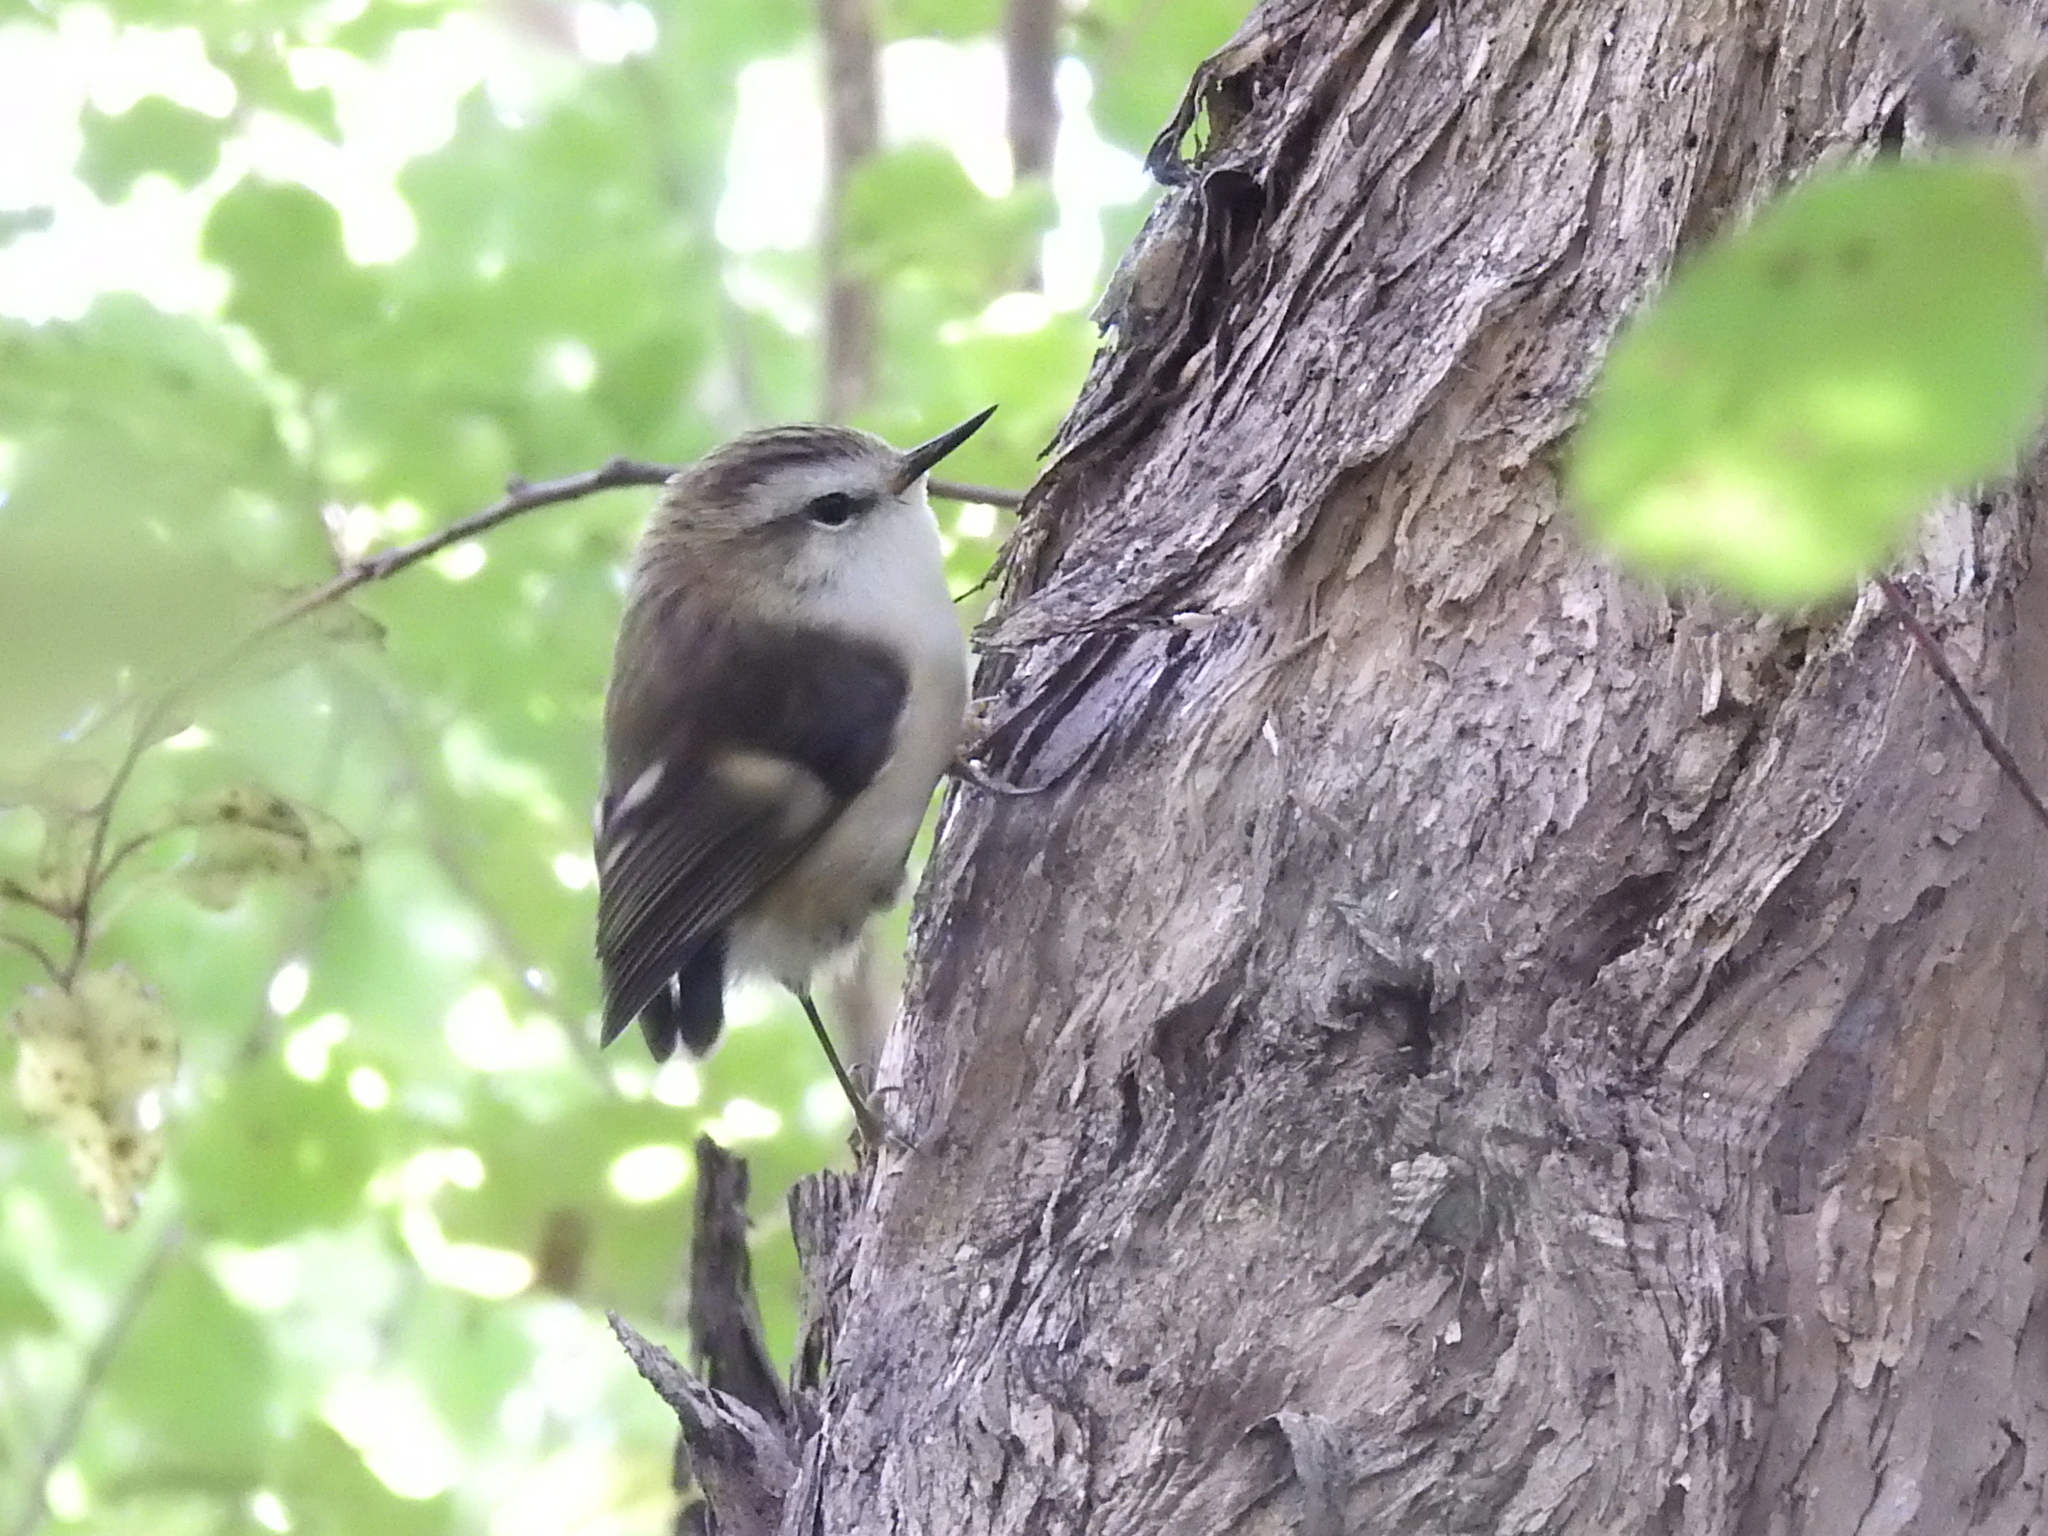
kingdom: Animalia
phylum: Chordata
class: Aves
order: Passeriformes
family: Acanthisittidae
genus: Acanthisitta
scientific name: Acanthisitta chloris
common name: Rifleman
